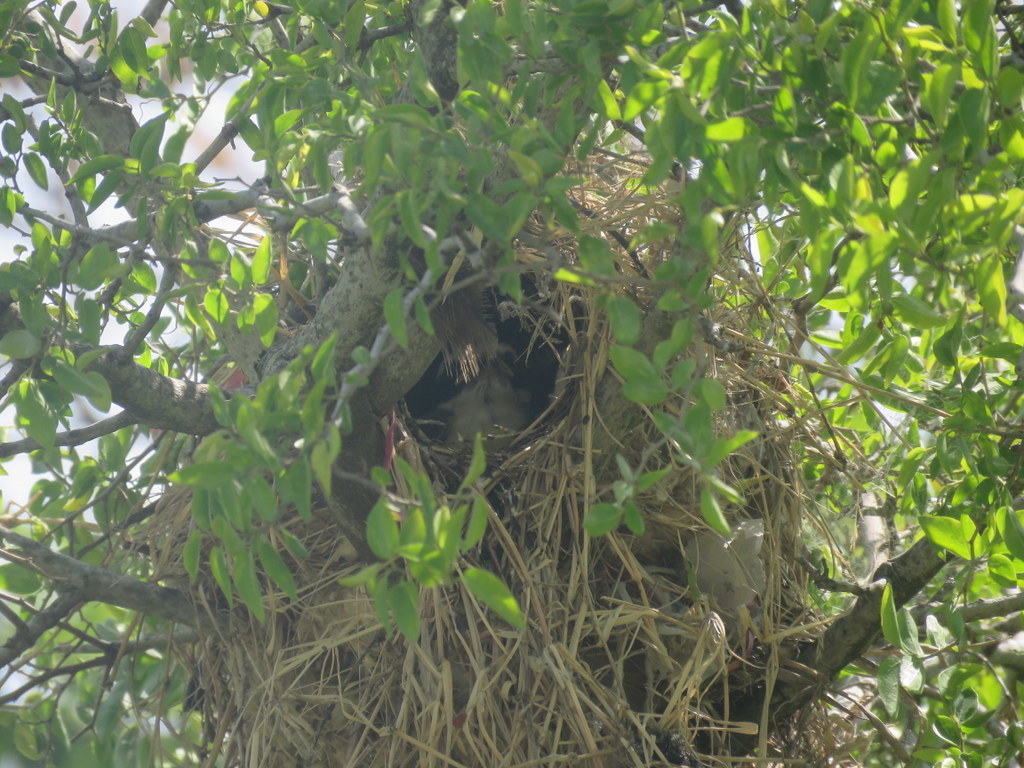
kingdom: Animalia
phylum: Chordata
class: Aves
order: Passeriformes
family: Tyrannidae
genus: Pitangus
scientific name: Pitangus sulphuratus
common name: Great kiskadee
